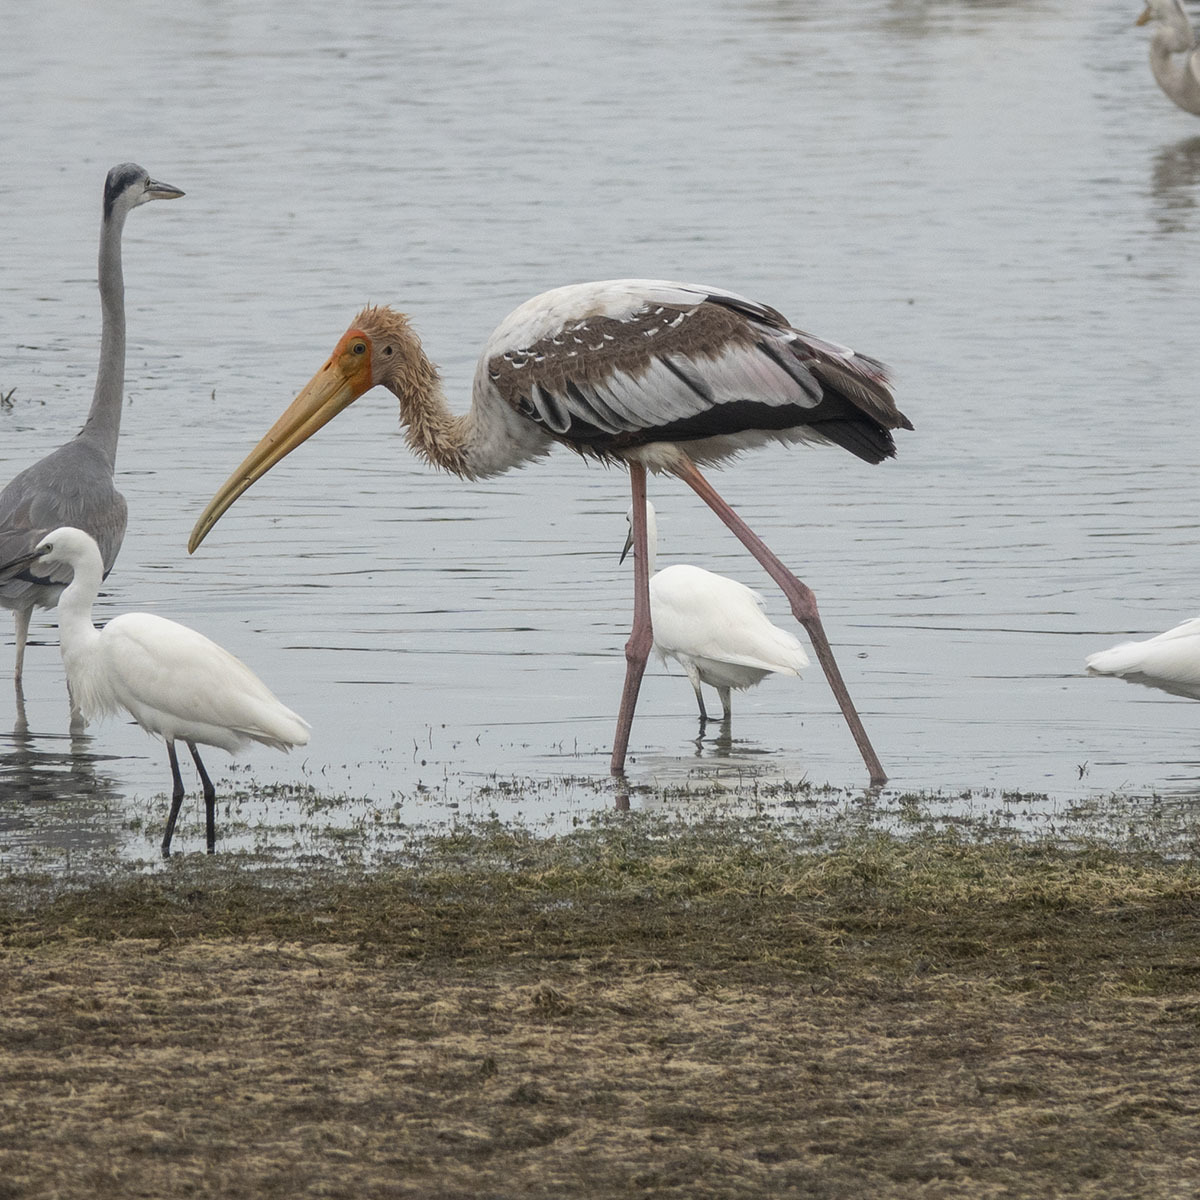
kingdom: Animalia
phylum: Chordata
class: Aves
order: Ciconiiformes
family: Ciconiidae
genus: Mycteria
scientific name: Mycteria leucocephala
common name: Painted stork
